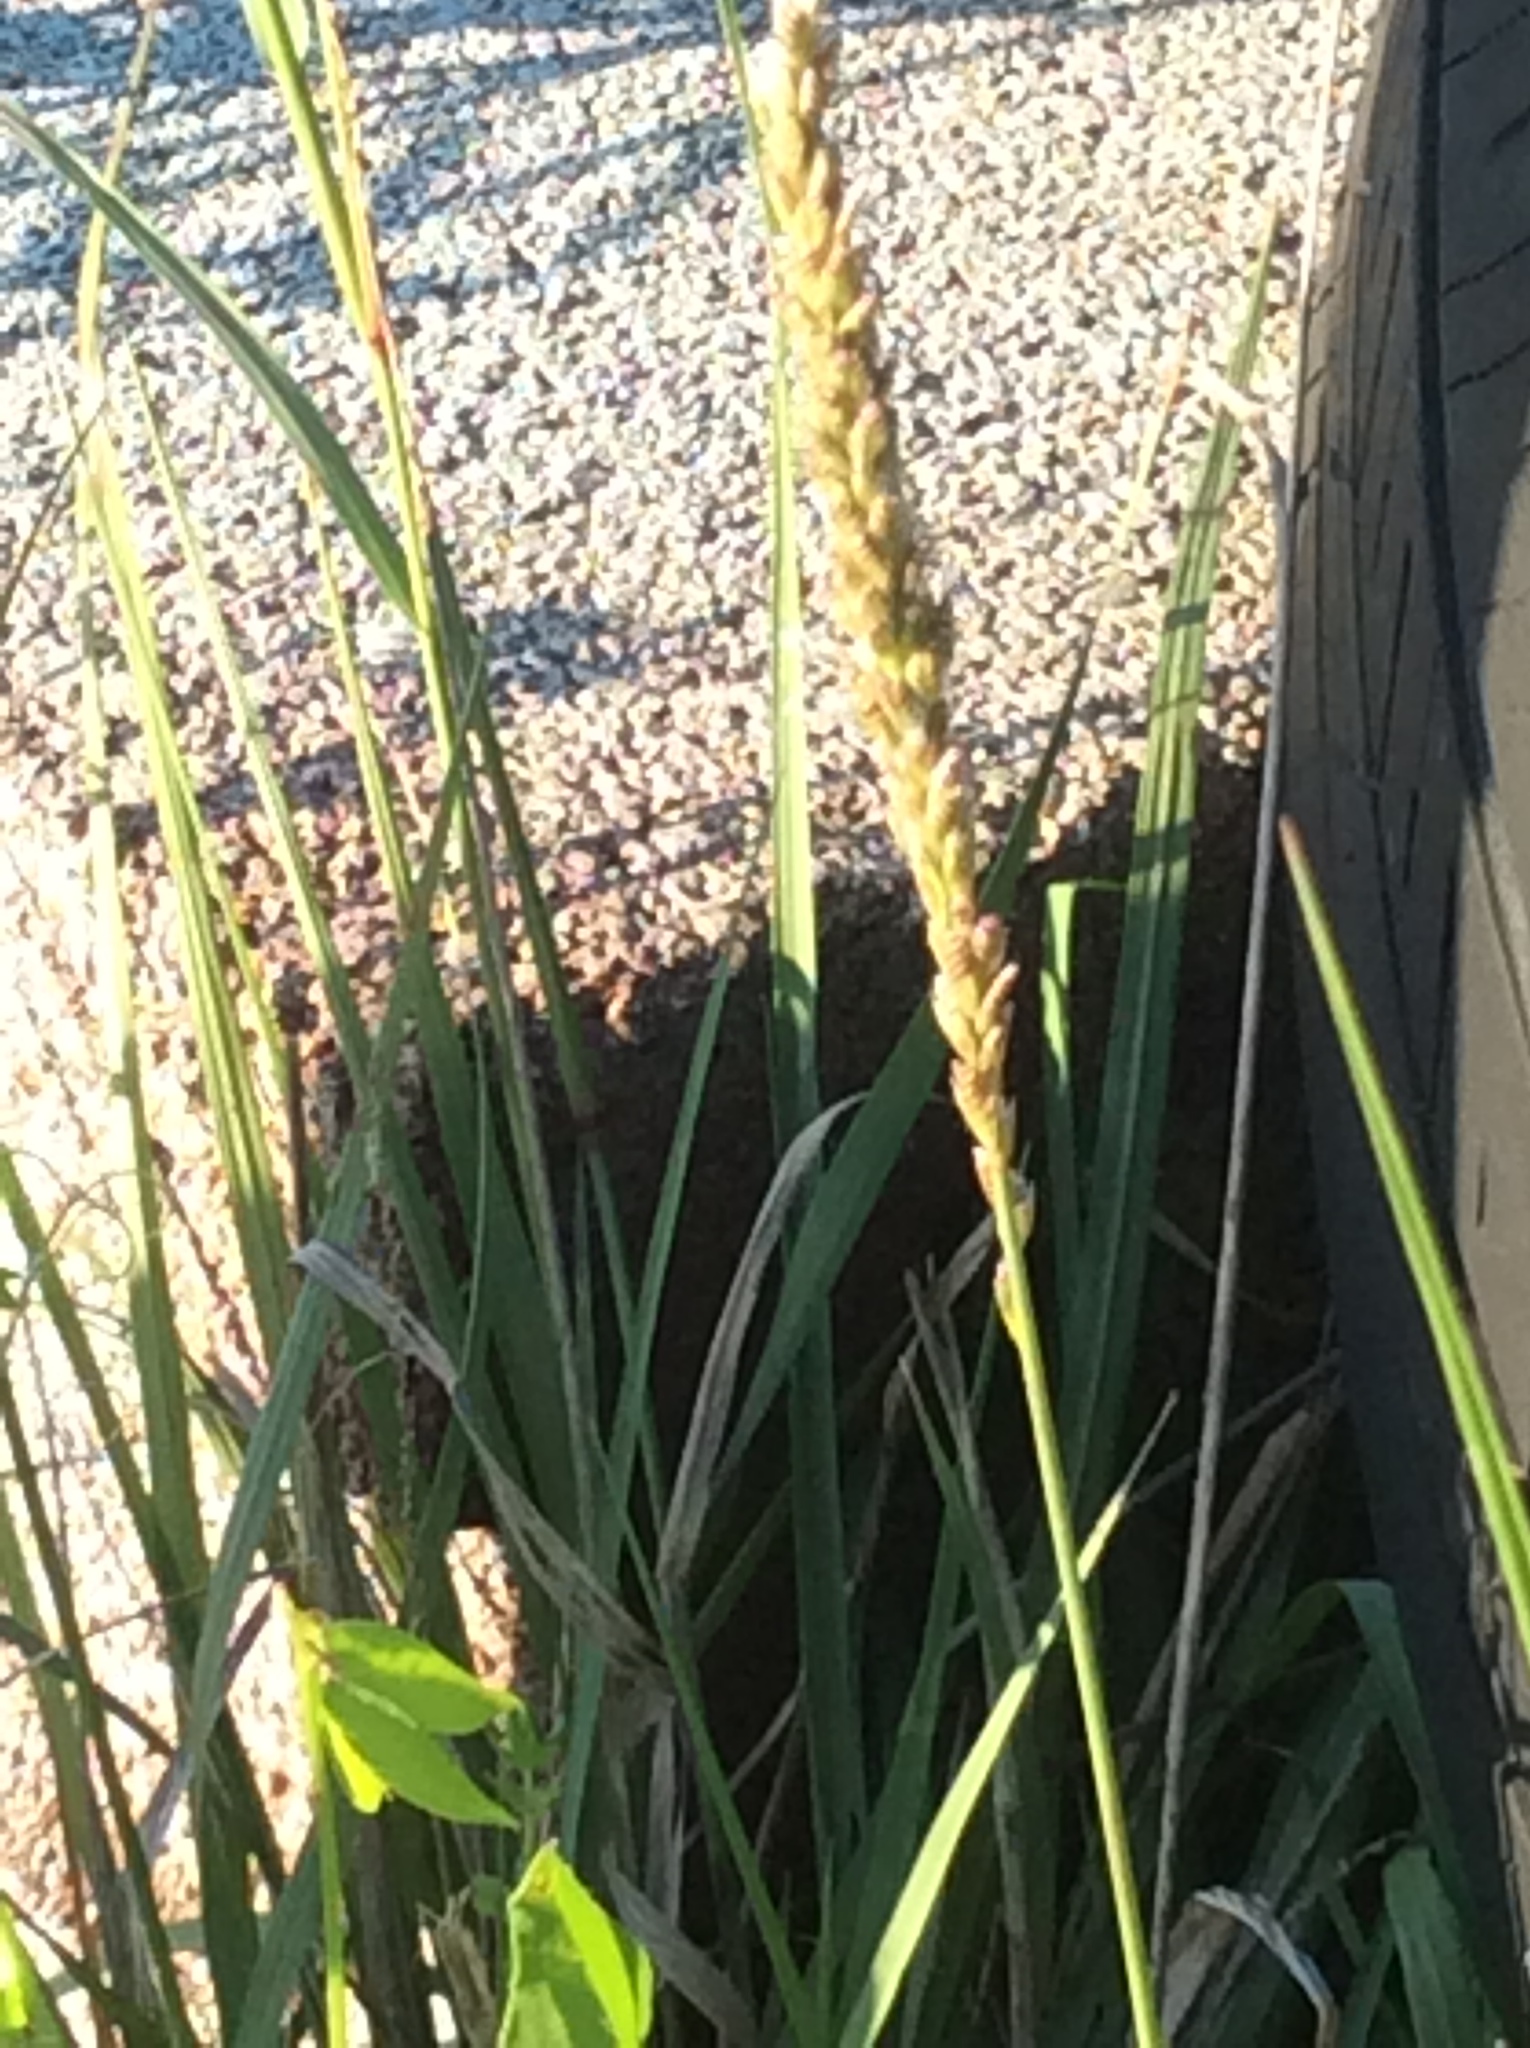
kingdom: Plantae
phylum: Tracheophyta
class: Liliopsida
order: Poales
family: Poaceae
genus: Tridens
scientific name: Tridens albescens
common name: White tridens
